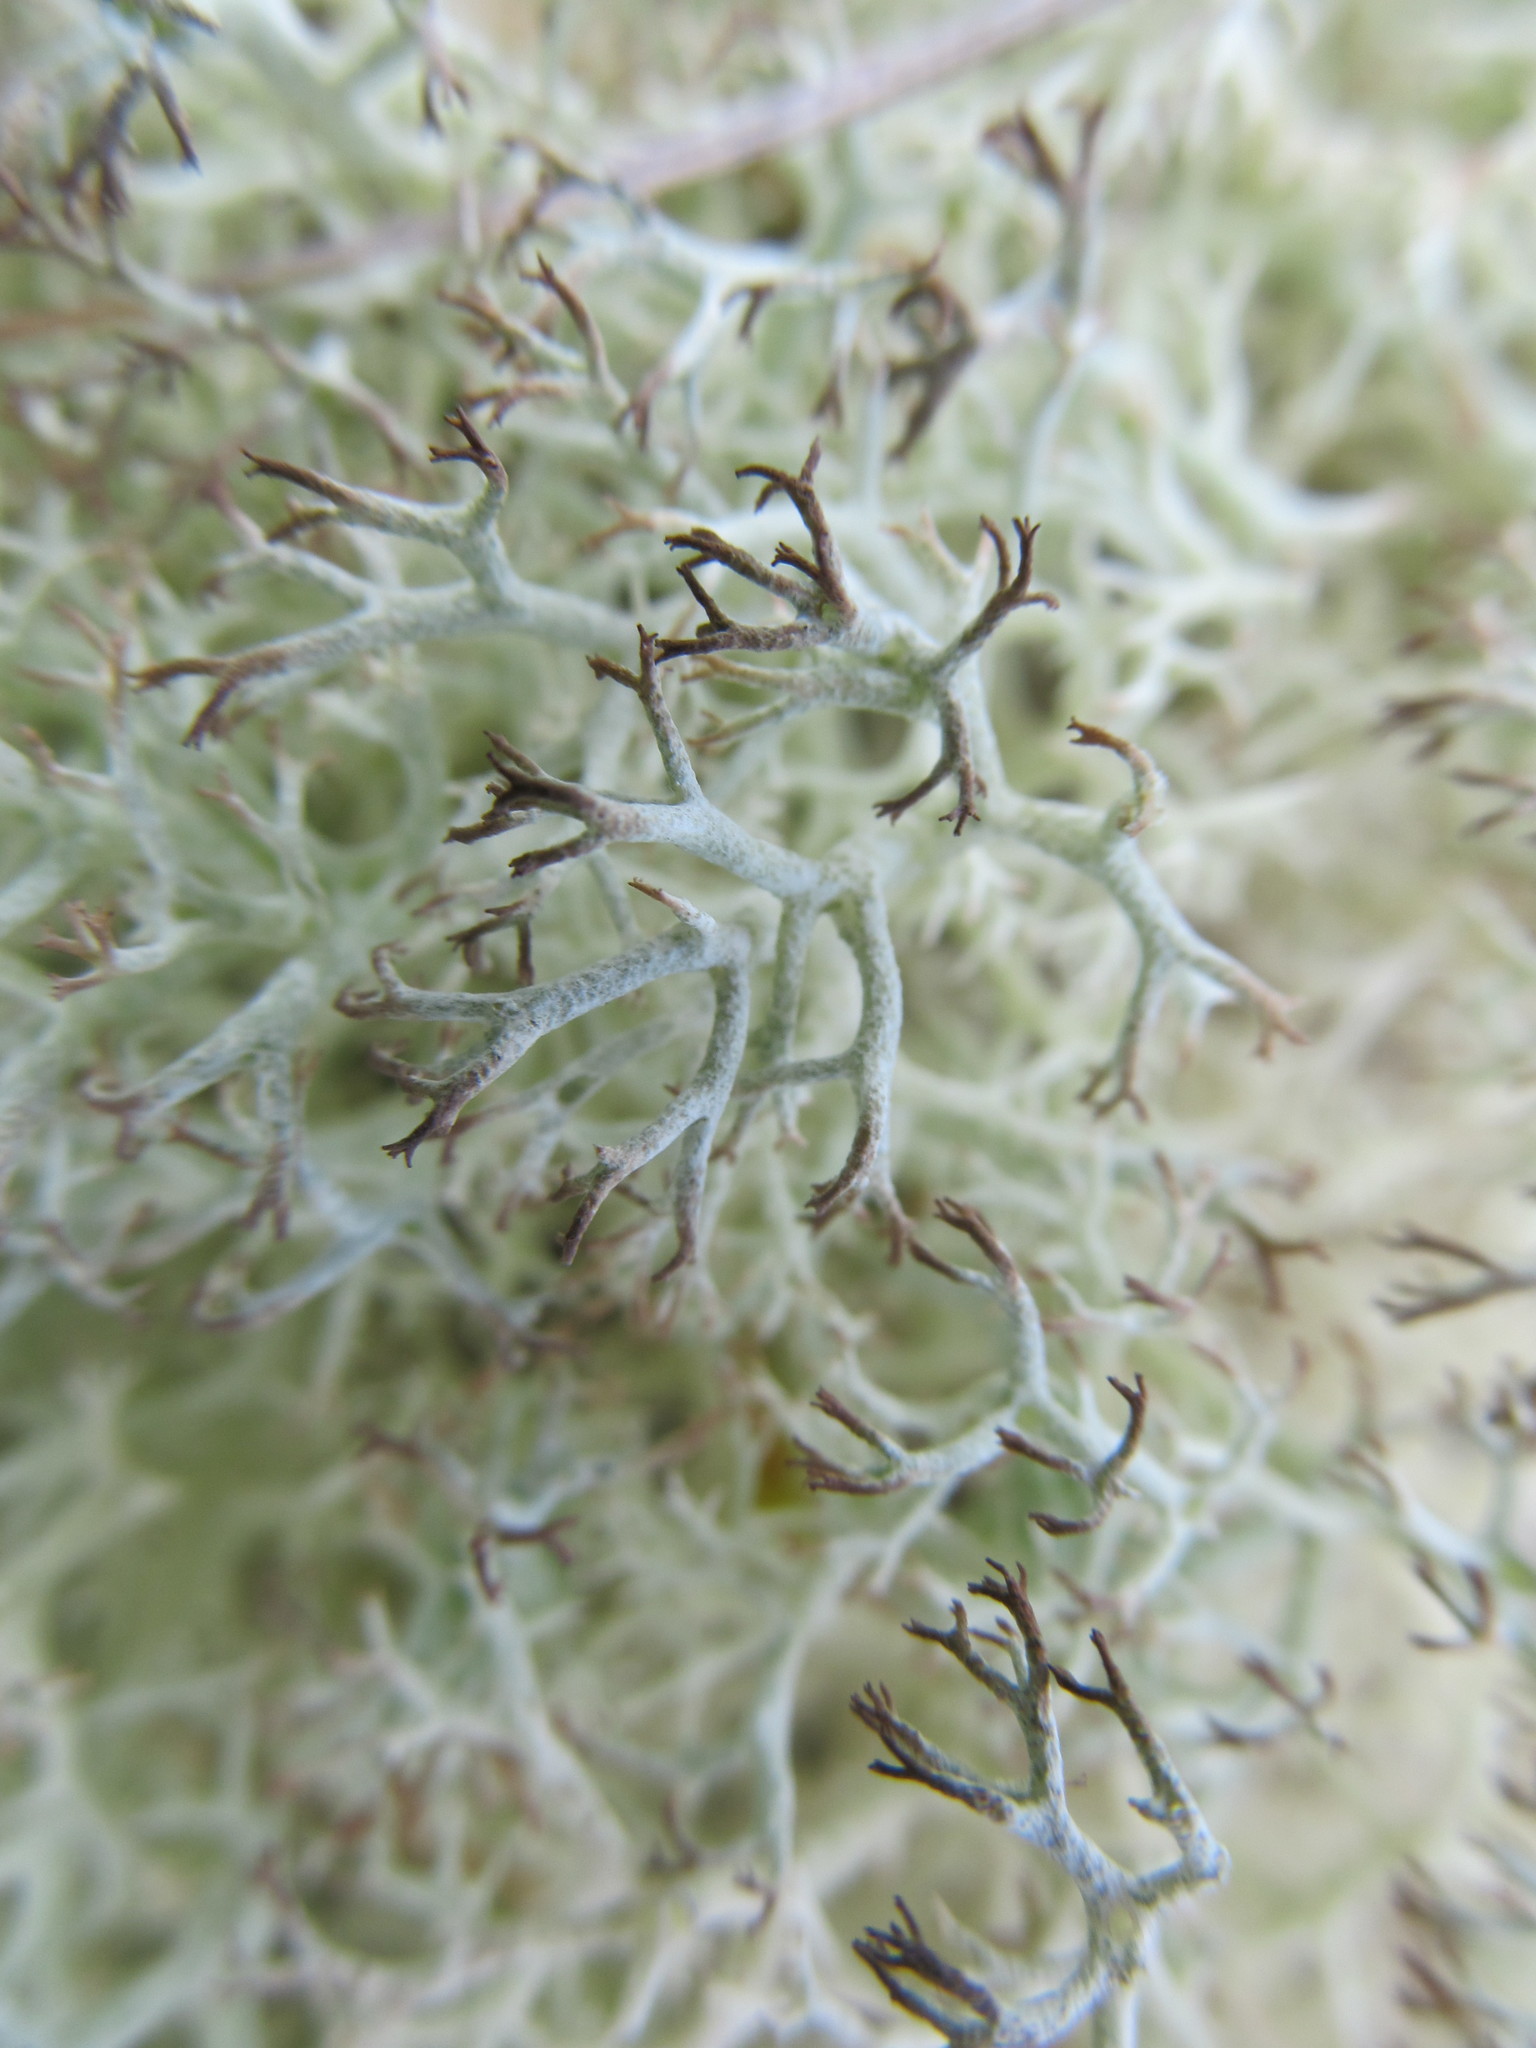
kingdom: Fungi
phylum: Ascomycota
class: Lecanoromycetes
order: Lecanorales
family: Cladoniaceae
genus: Cladonia
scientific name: Cladonia rangiferina
